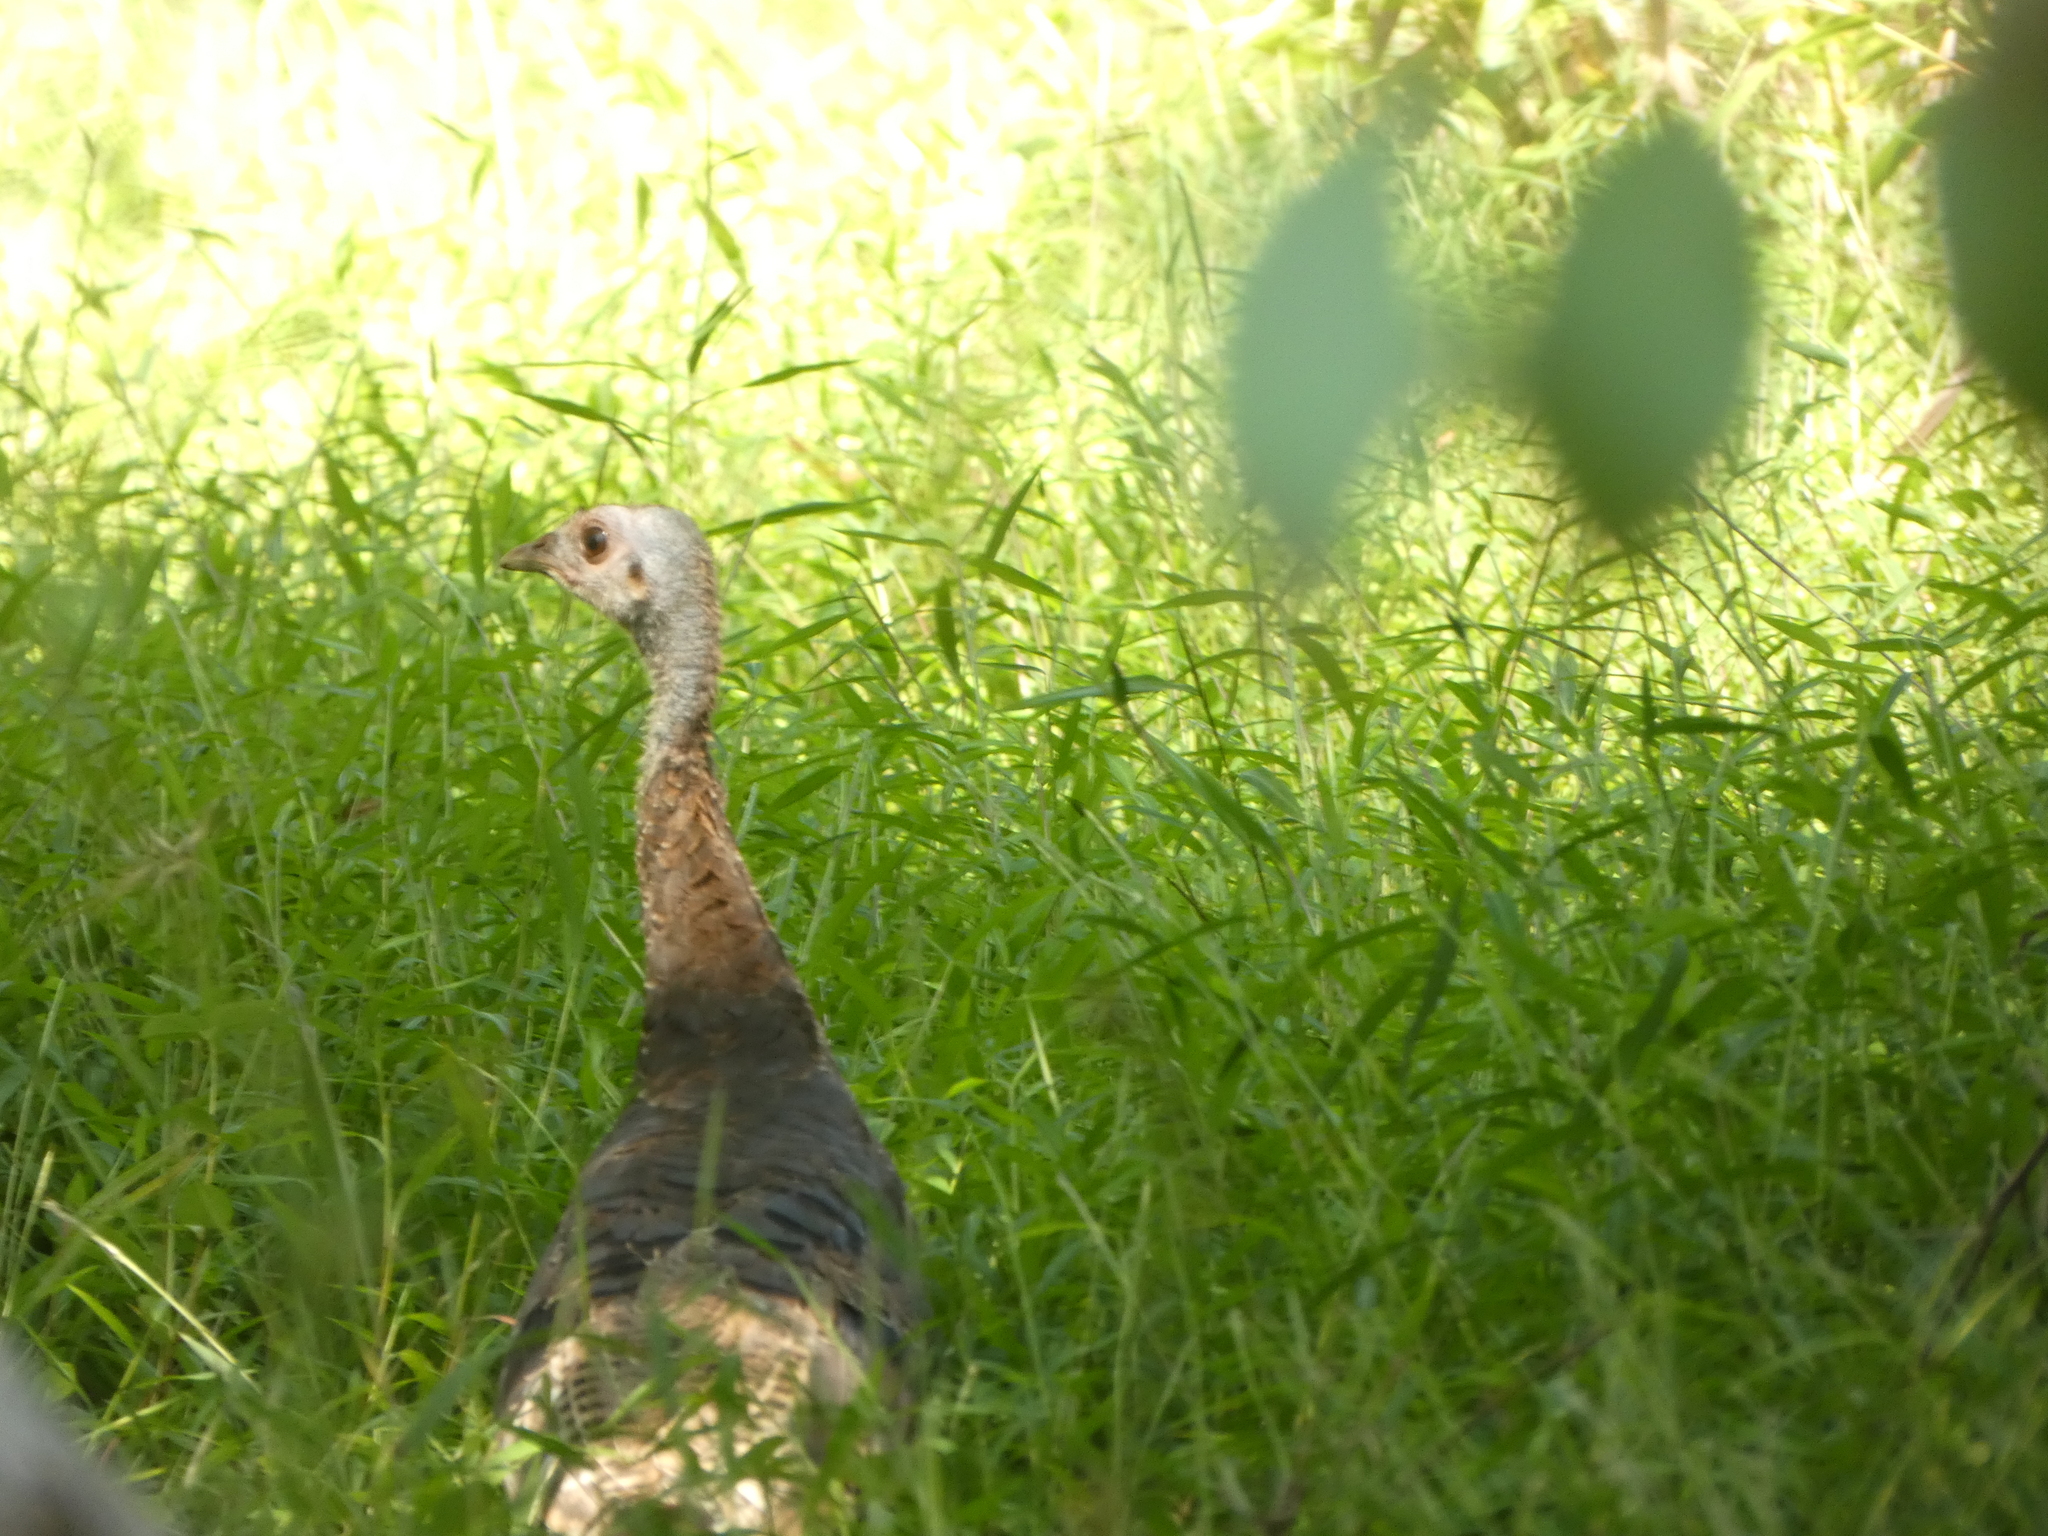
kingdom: Animalia
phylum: Chordata
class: Aves
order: Galliformes
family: Phasianidae
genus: Meleagris
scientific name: Meleagris gallopavo
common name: Wild turkey
